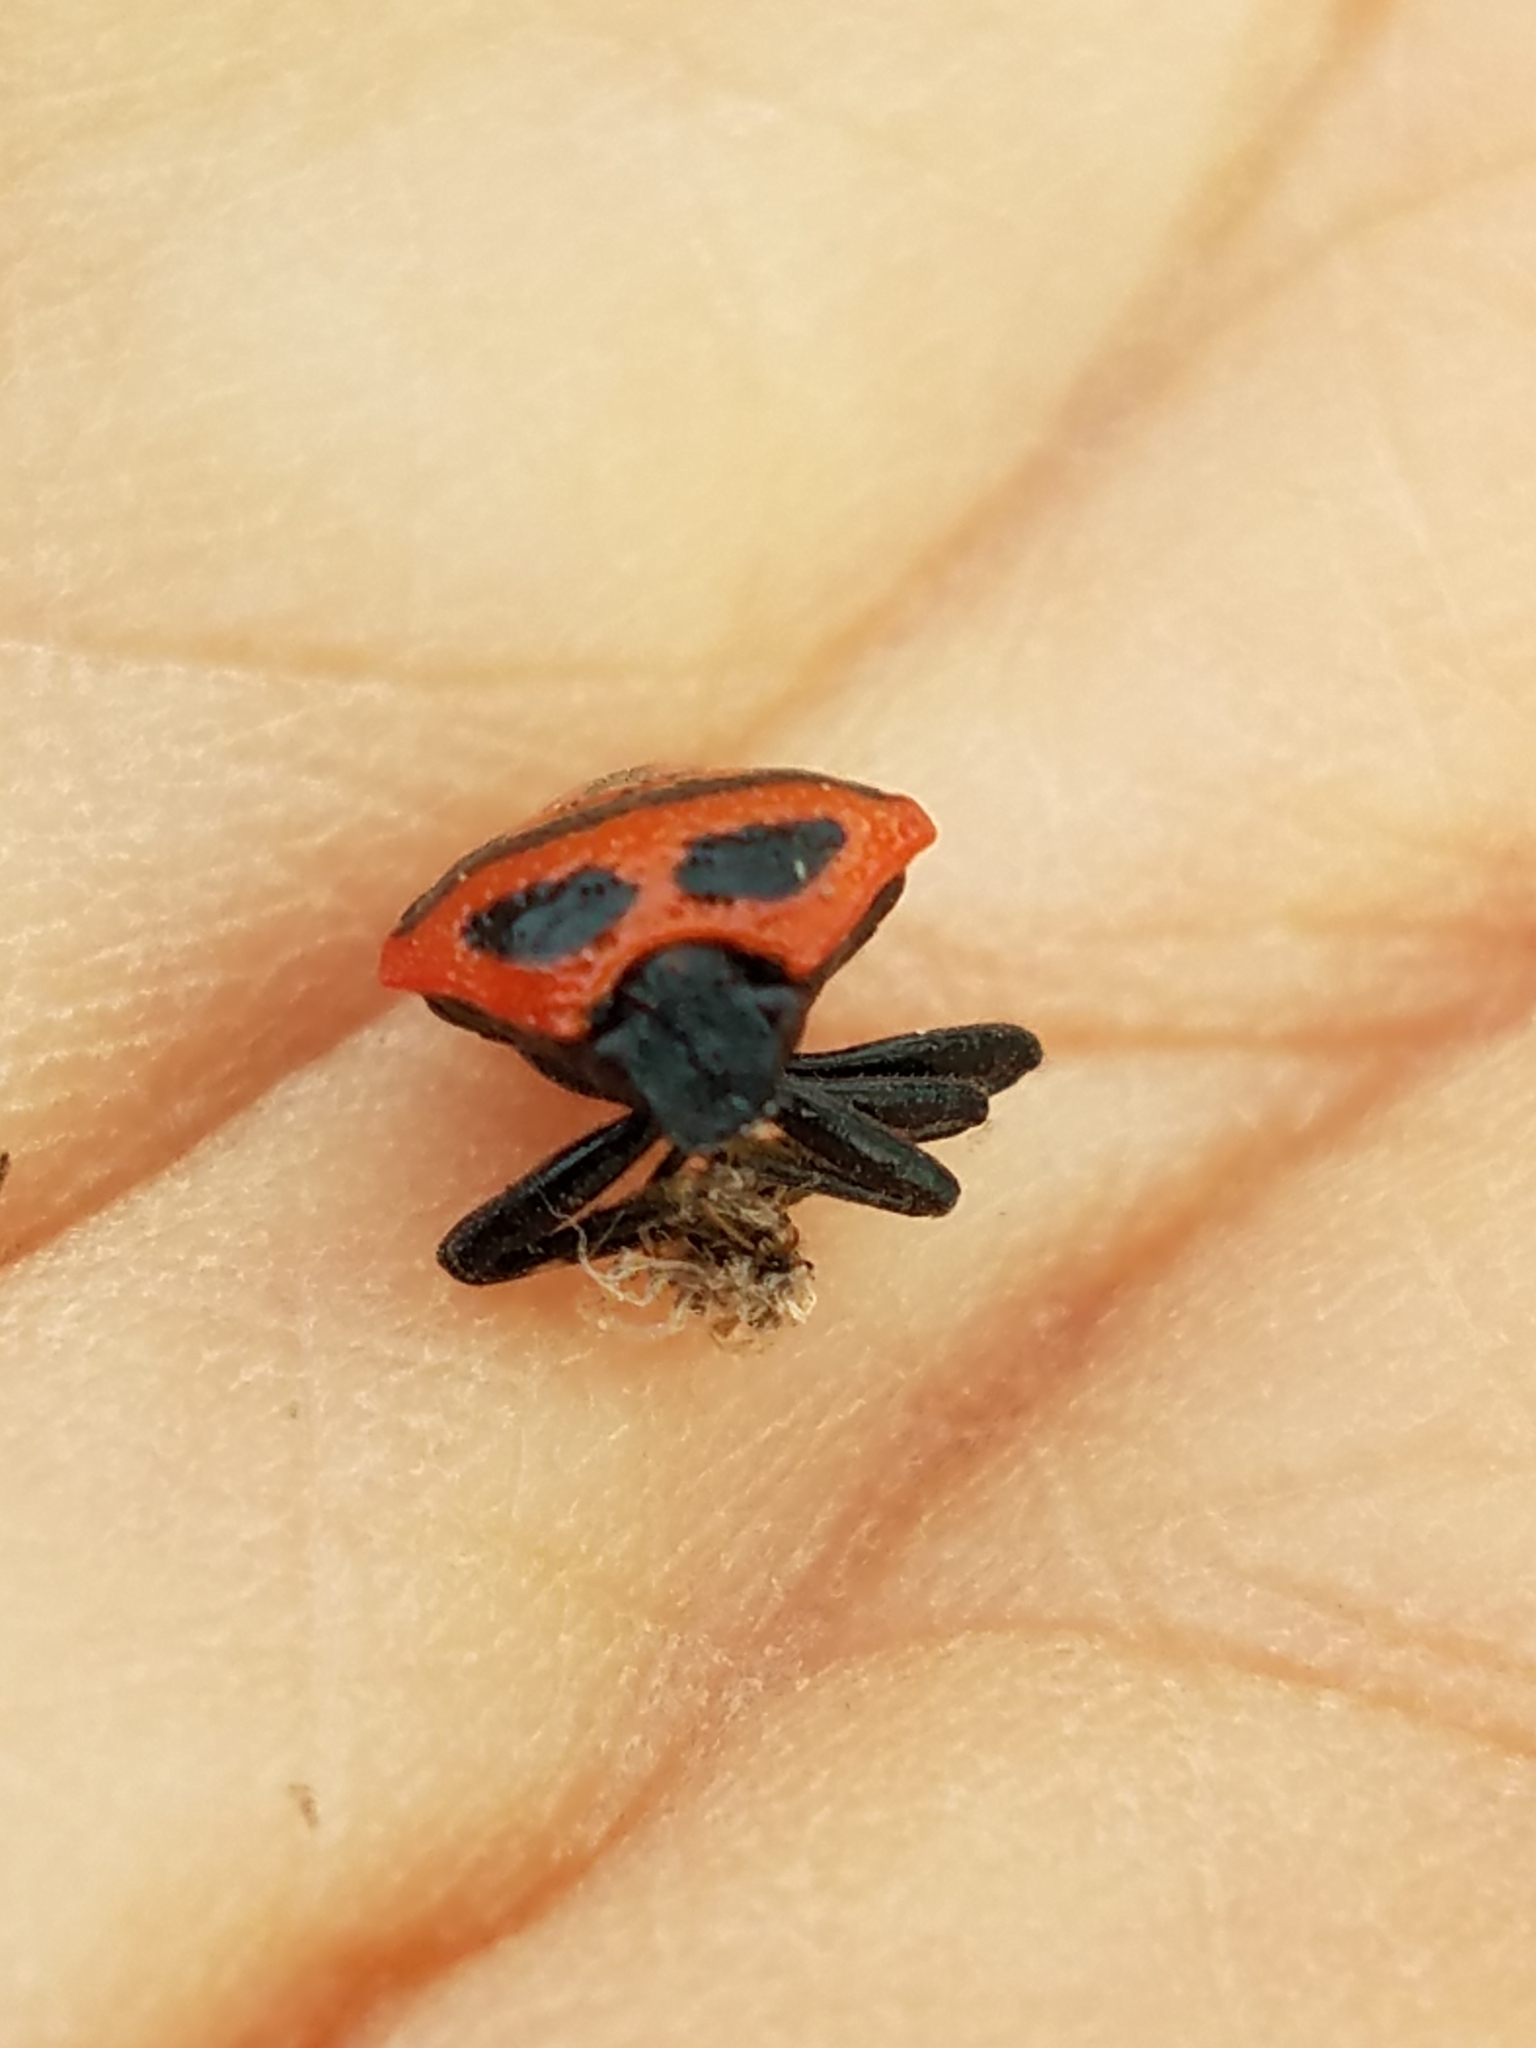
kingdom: Animalia
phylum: Arthropoda
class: Insecta
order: Hemiptera
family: Pentatomidae
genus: Perillus
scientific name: Perillus bioculatus
